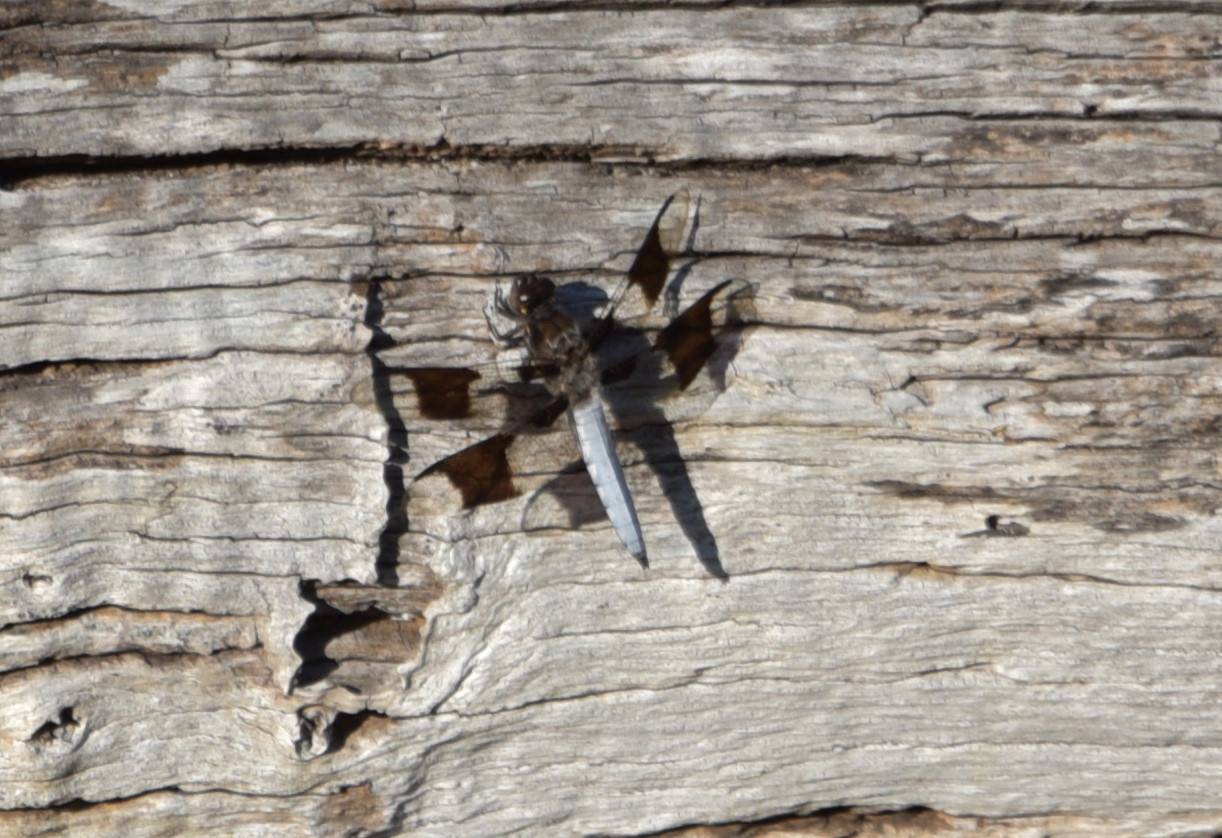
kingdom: Animalia
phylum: Arthropoda
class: Insecta
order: Odonata
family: Libellulidae
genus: Plathemis
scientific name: Plathemis lydia
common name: Common whitetail
